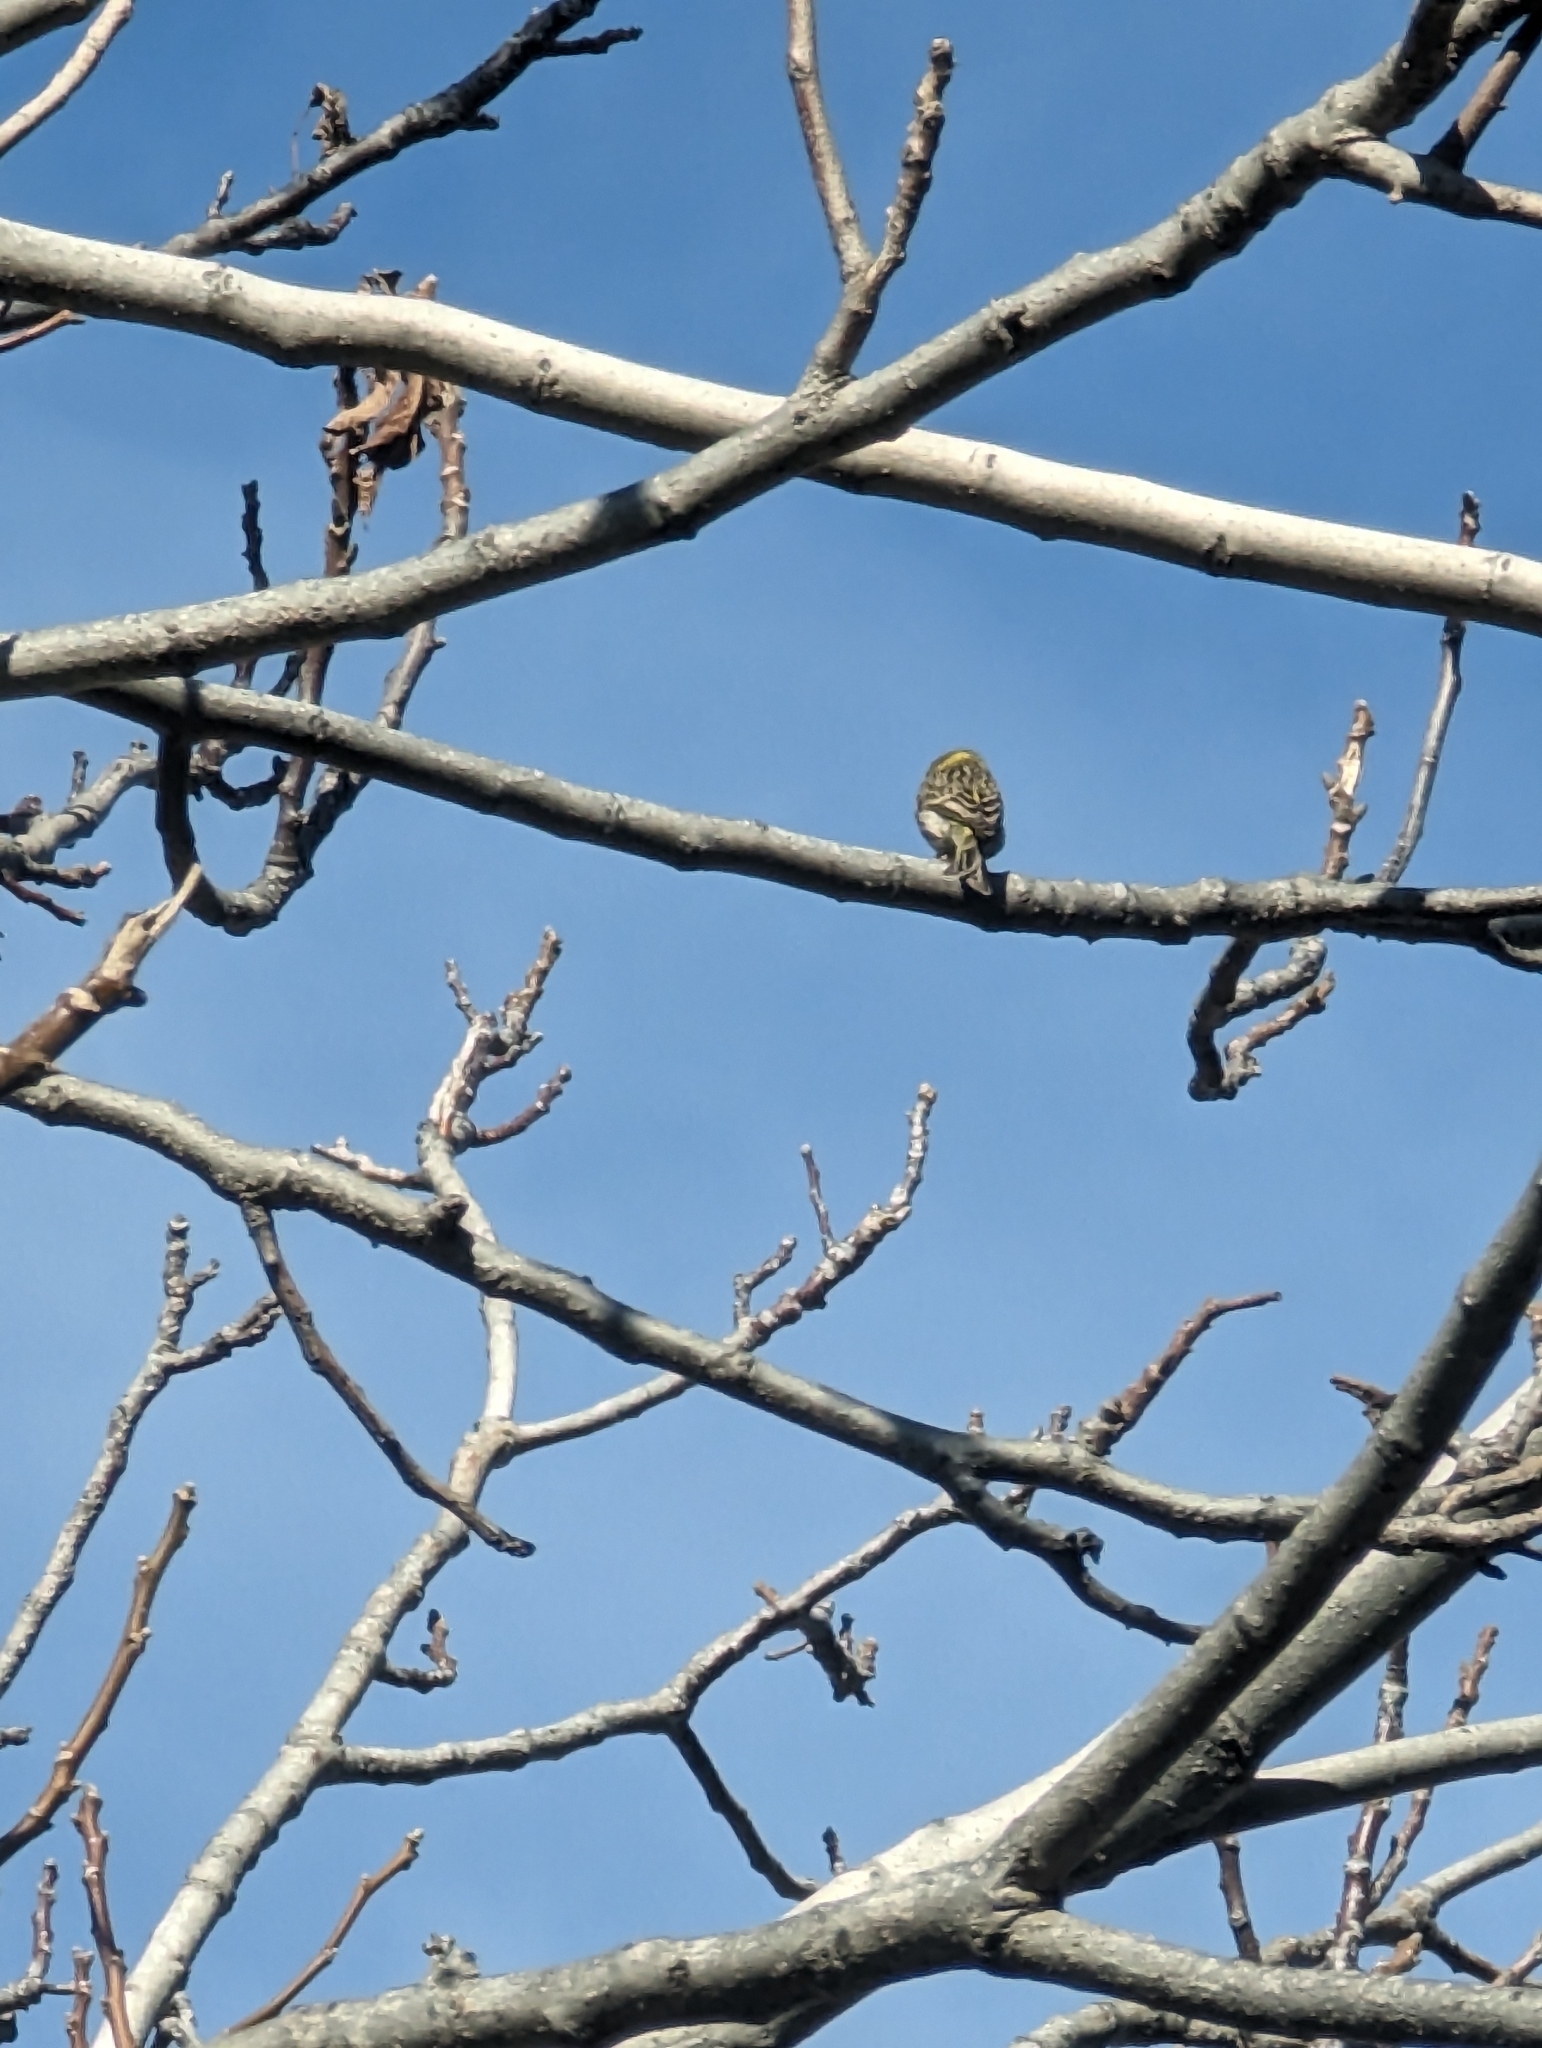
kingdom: Animalia
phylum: Chordata
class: Aves
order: Passeriformes
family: Fringillidae
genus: Serinus
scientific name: Serinus serinus
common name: European serin
